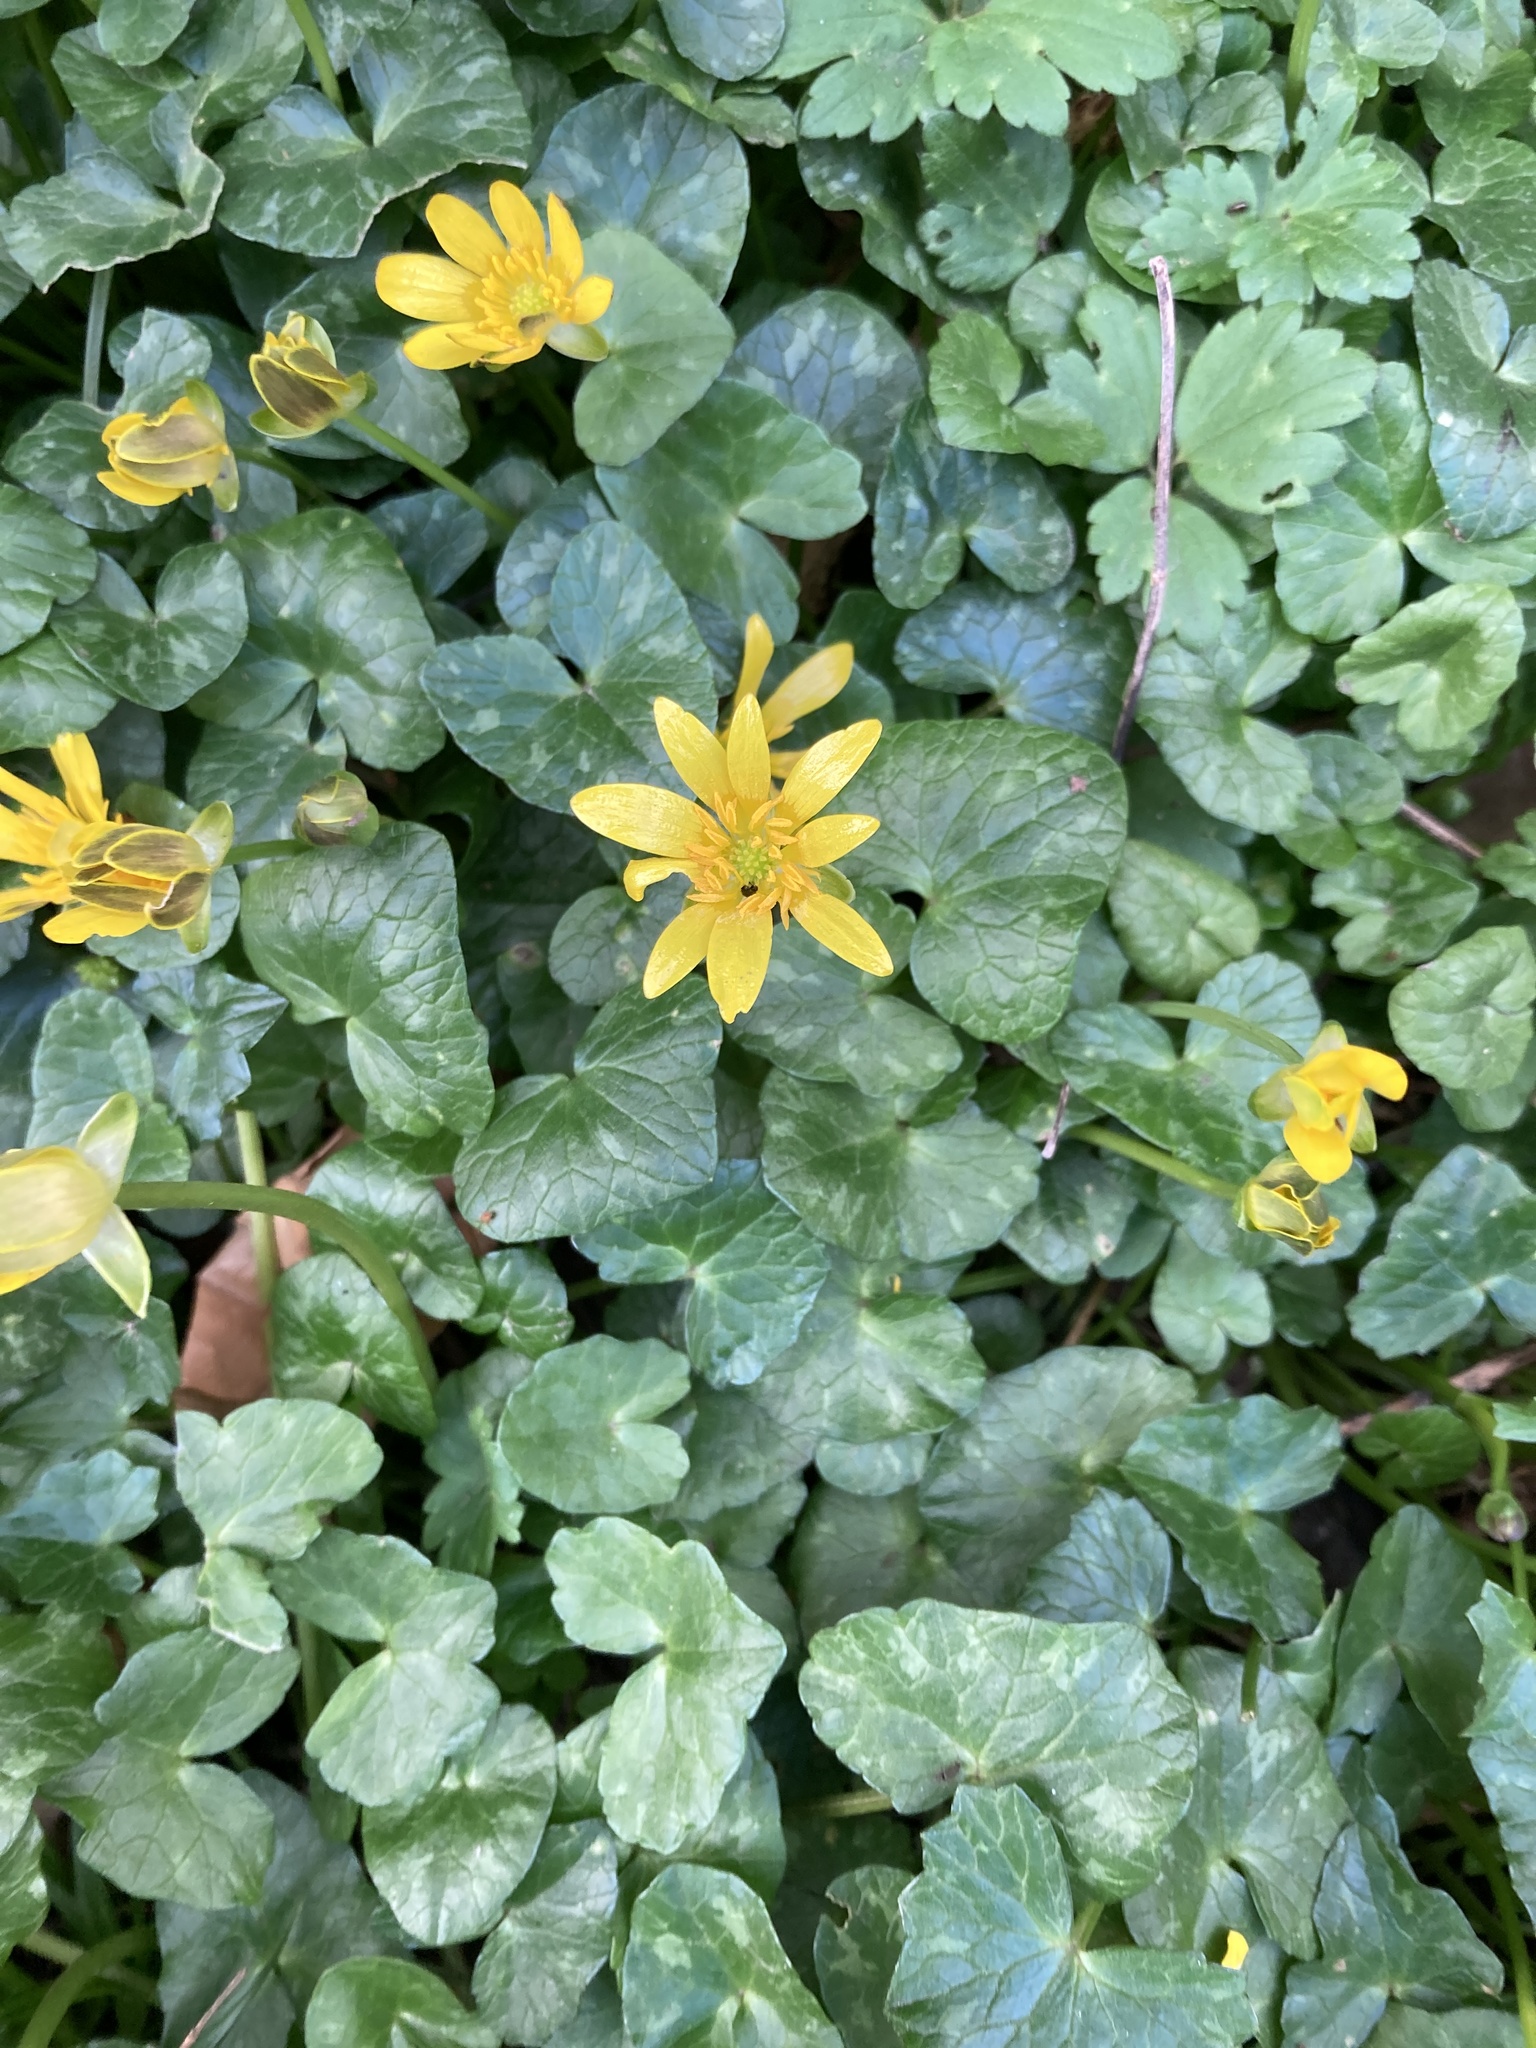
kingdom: Plantae
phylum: Tracheophyta
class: Magnoliopsida
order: Ranunculales
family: Ranunculaceae
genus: Ficaria
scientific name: Ficaria verna
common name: Lesser celandine
